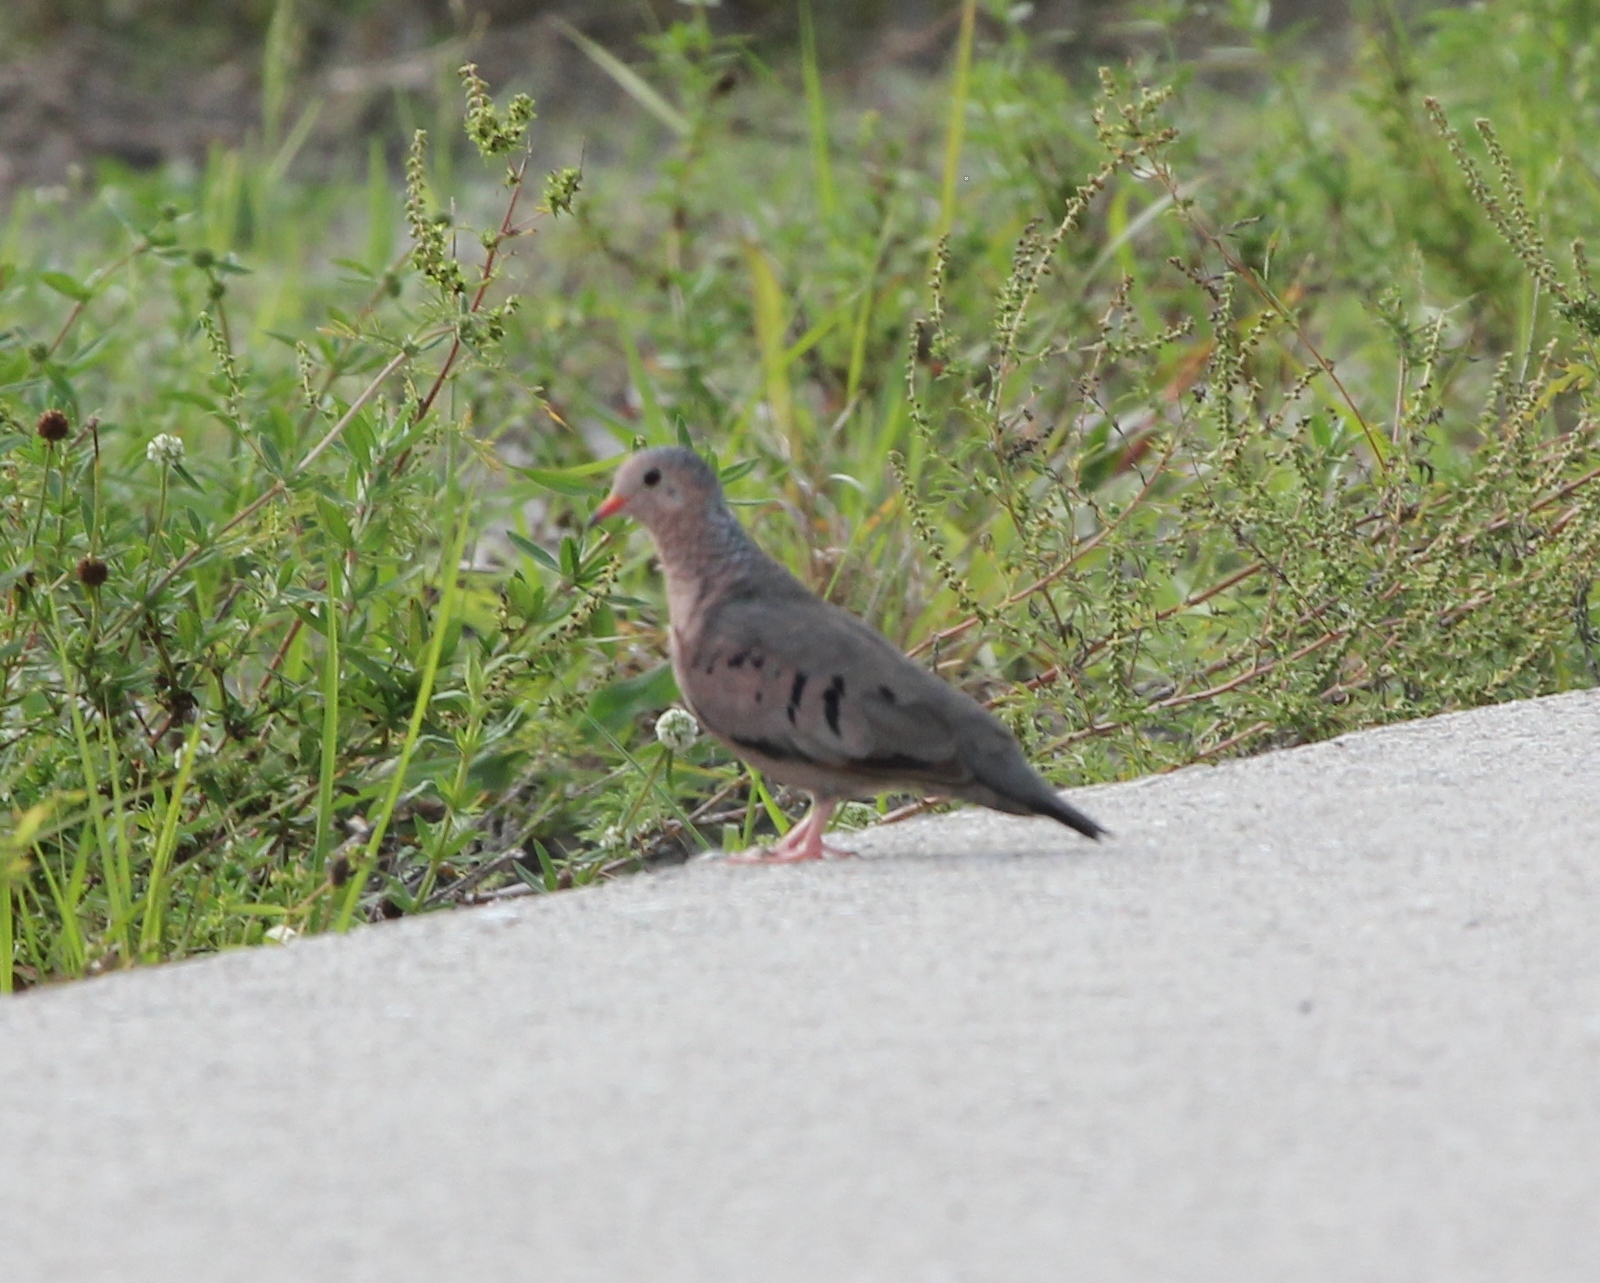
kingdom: Animalia
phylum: Chordata
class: Aves
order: Columbiformes
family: Columbidae
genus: Columbina
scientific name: Columbina passerina
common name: Common ground-dove
